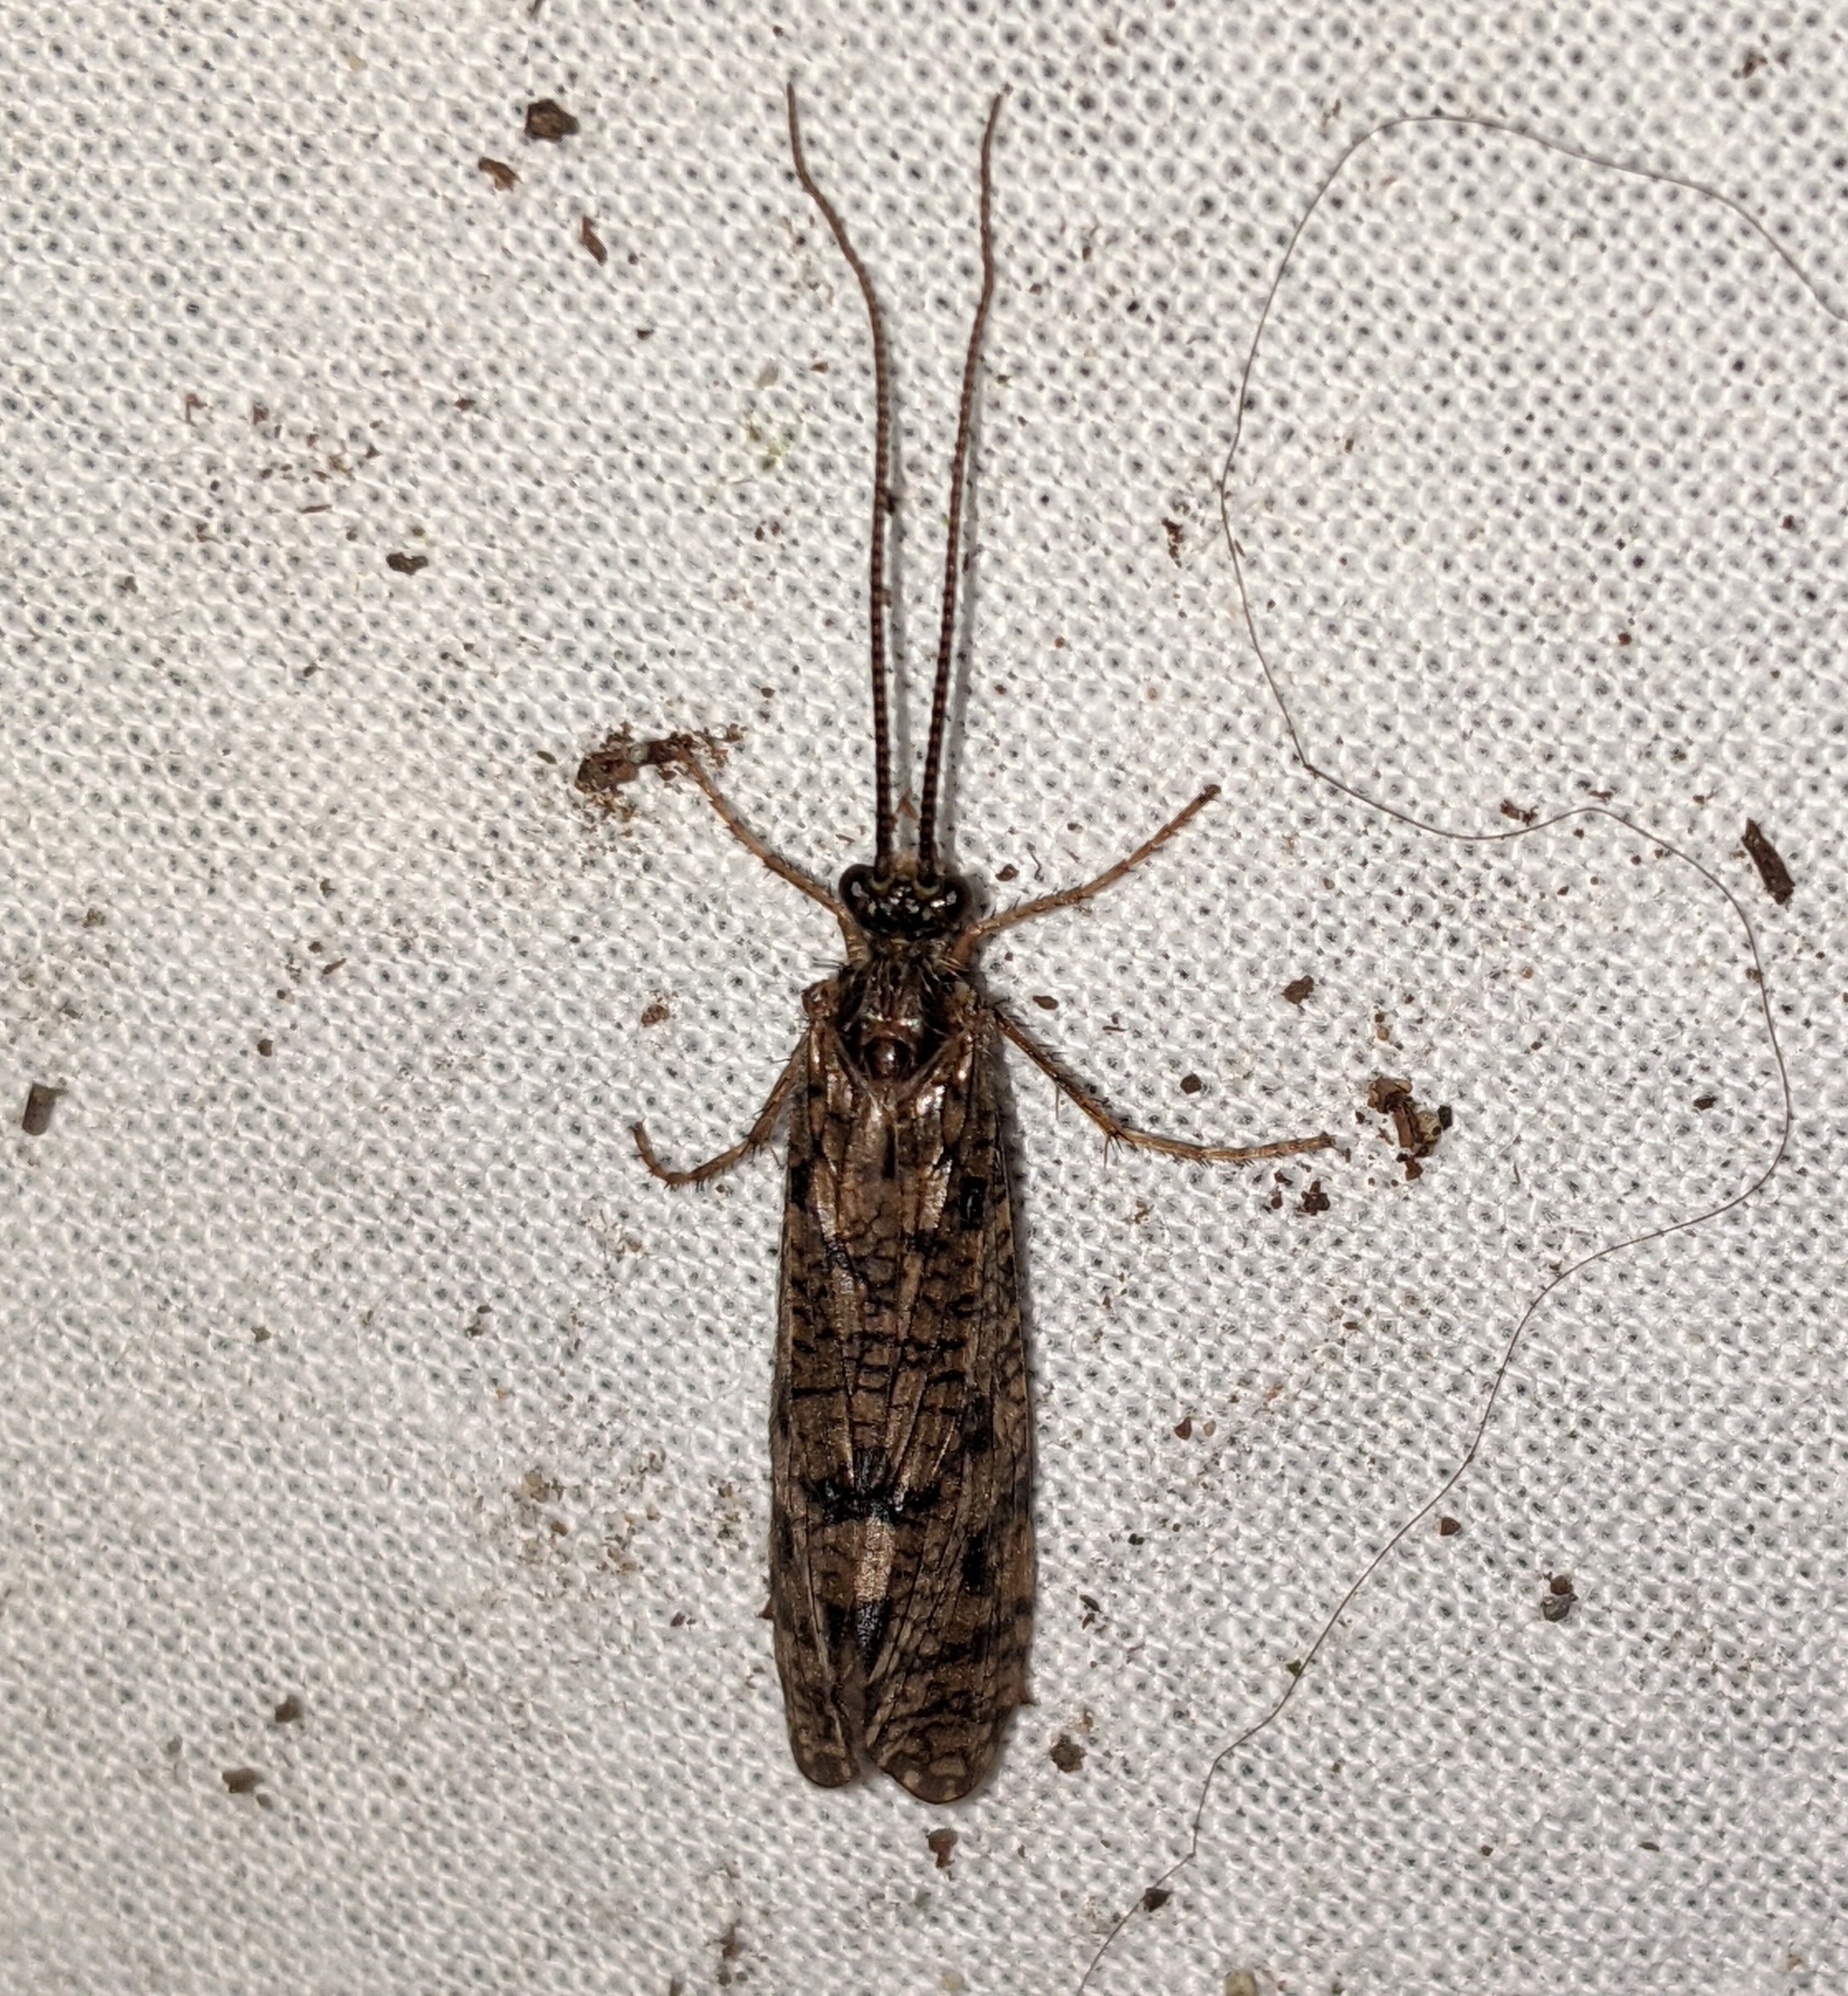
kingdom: Animalia
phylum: Arthropoda
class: Insecta
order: Trichoptera
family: Phryganeidae
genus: Banksiola
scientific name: Banksiola crotchi
